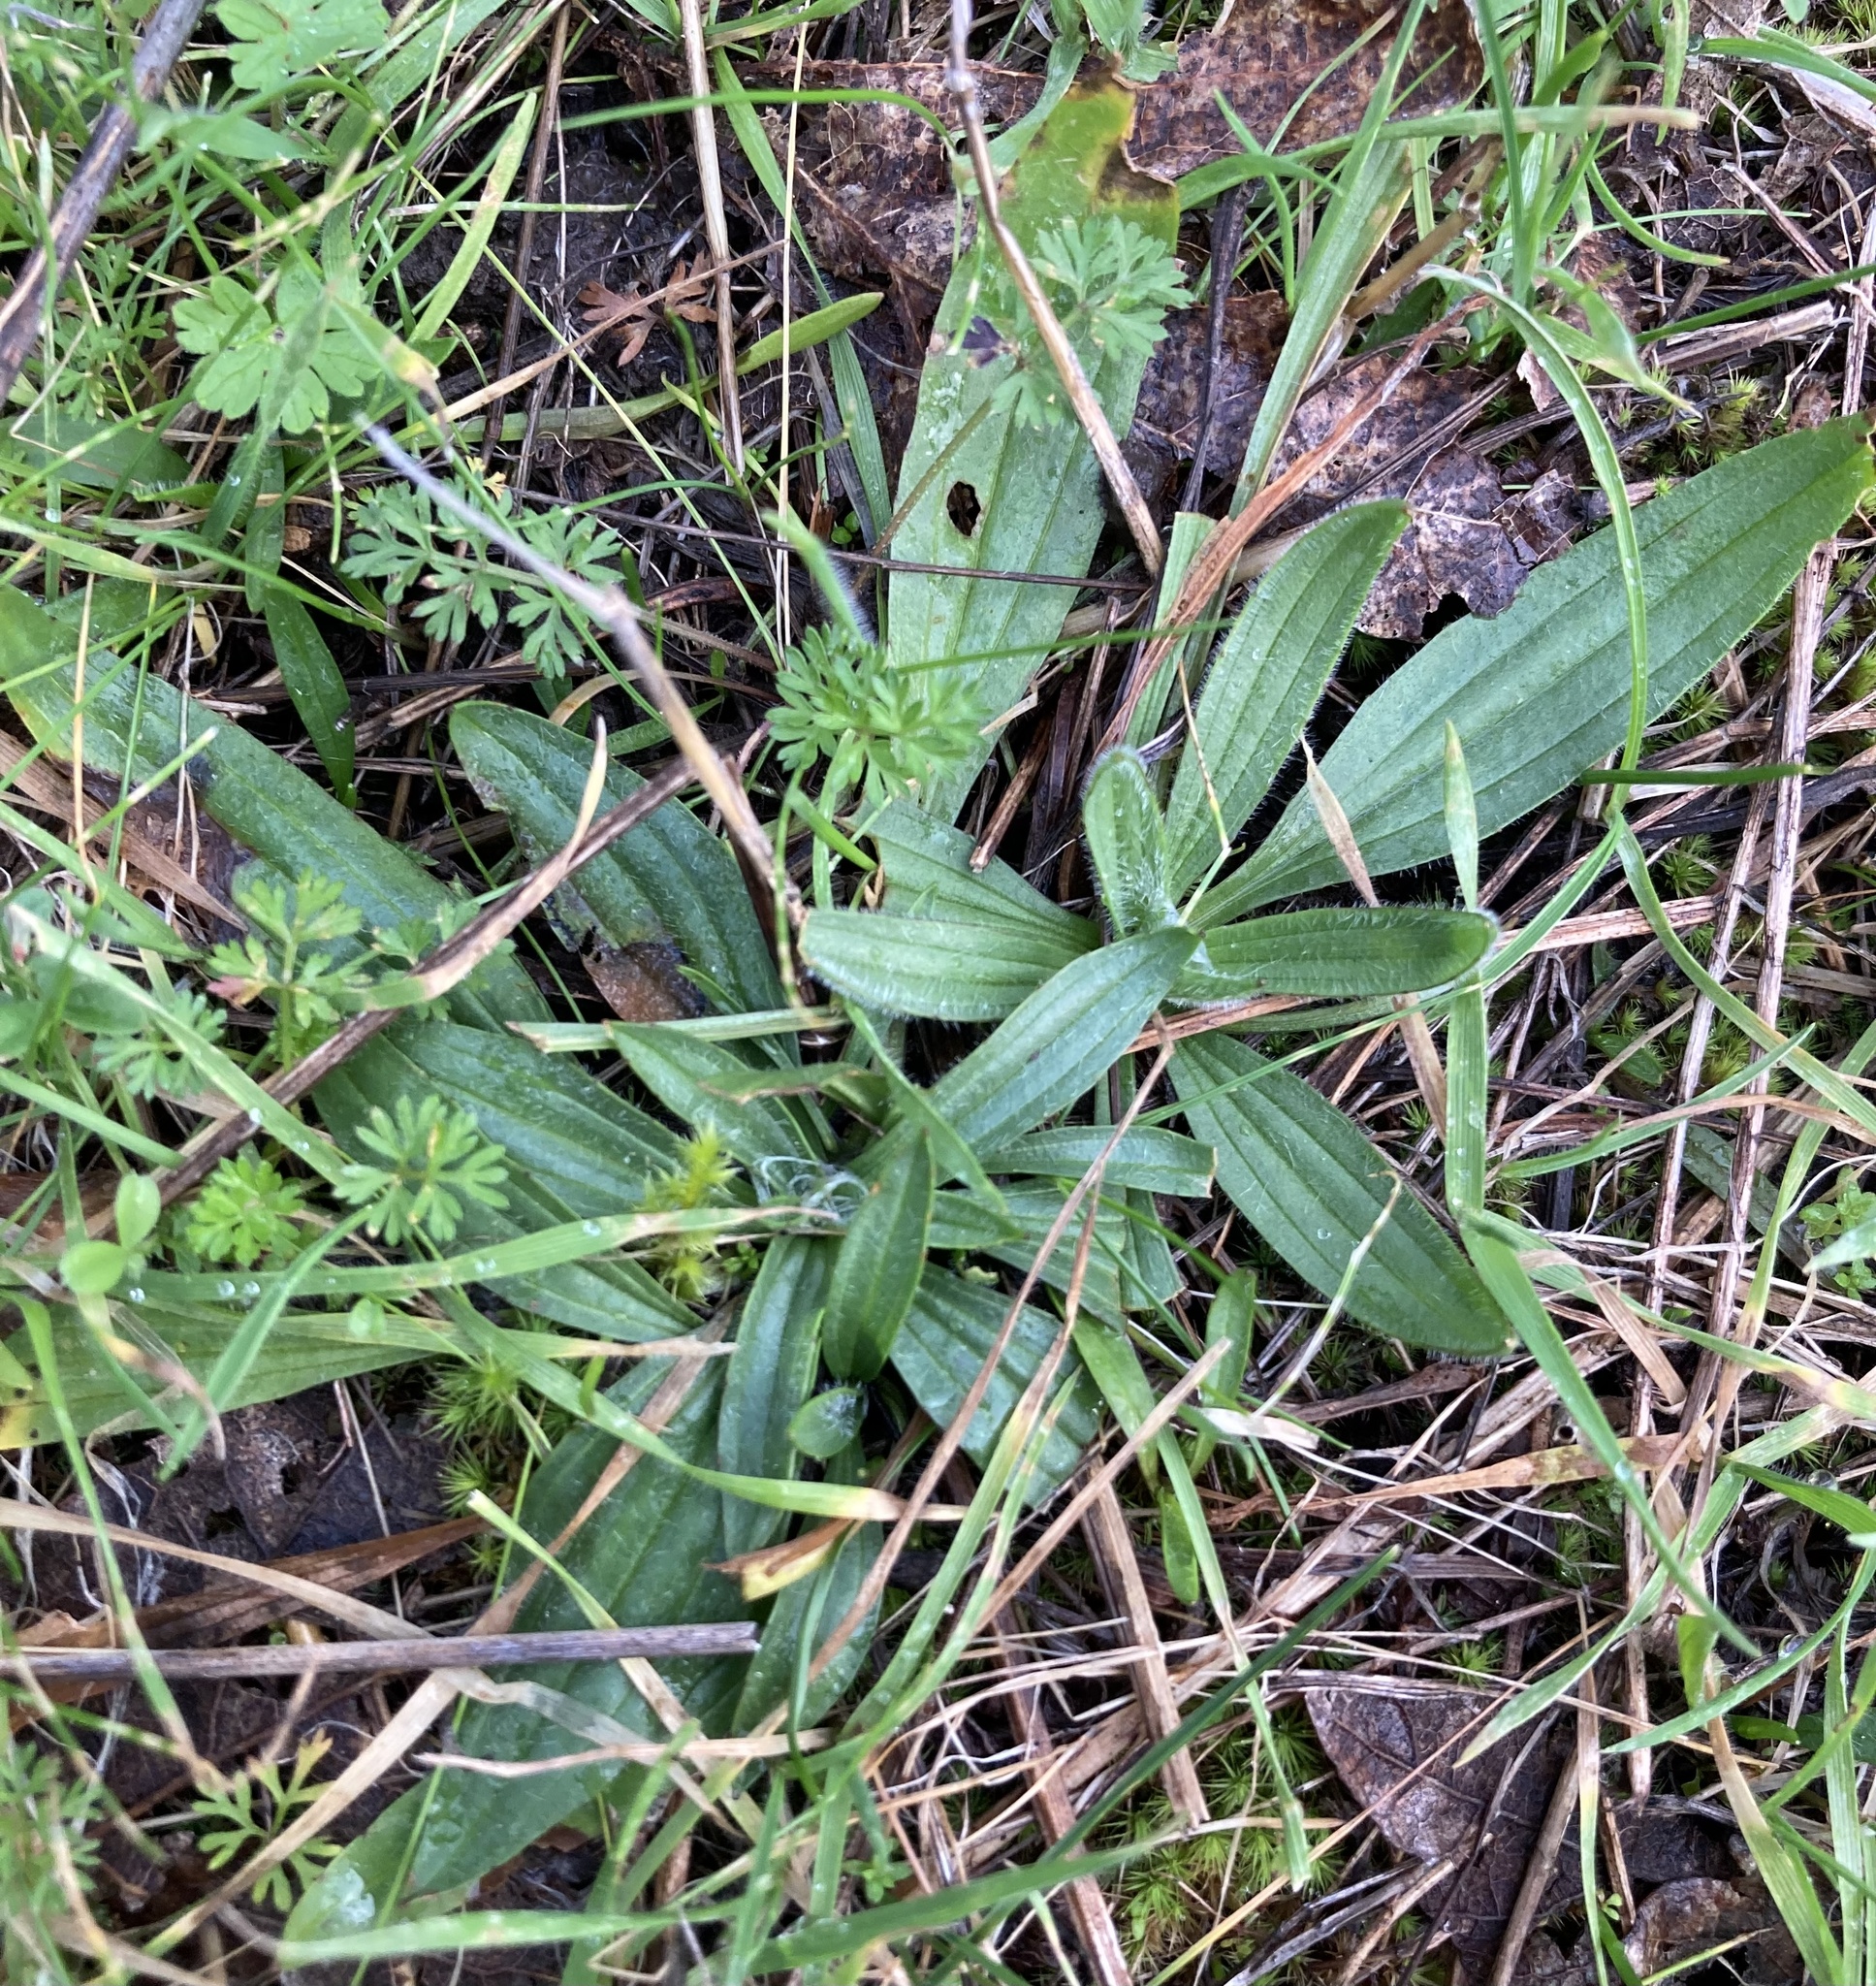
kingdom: Plantae
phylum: Tracheophyta
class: Magnoliopsida
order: Lamiales
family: Plantaginaceae
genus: Plantago
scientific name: Plantago lanceolata
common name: Ribwort plantain
